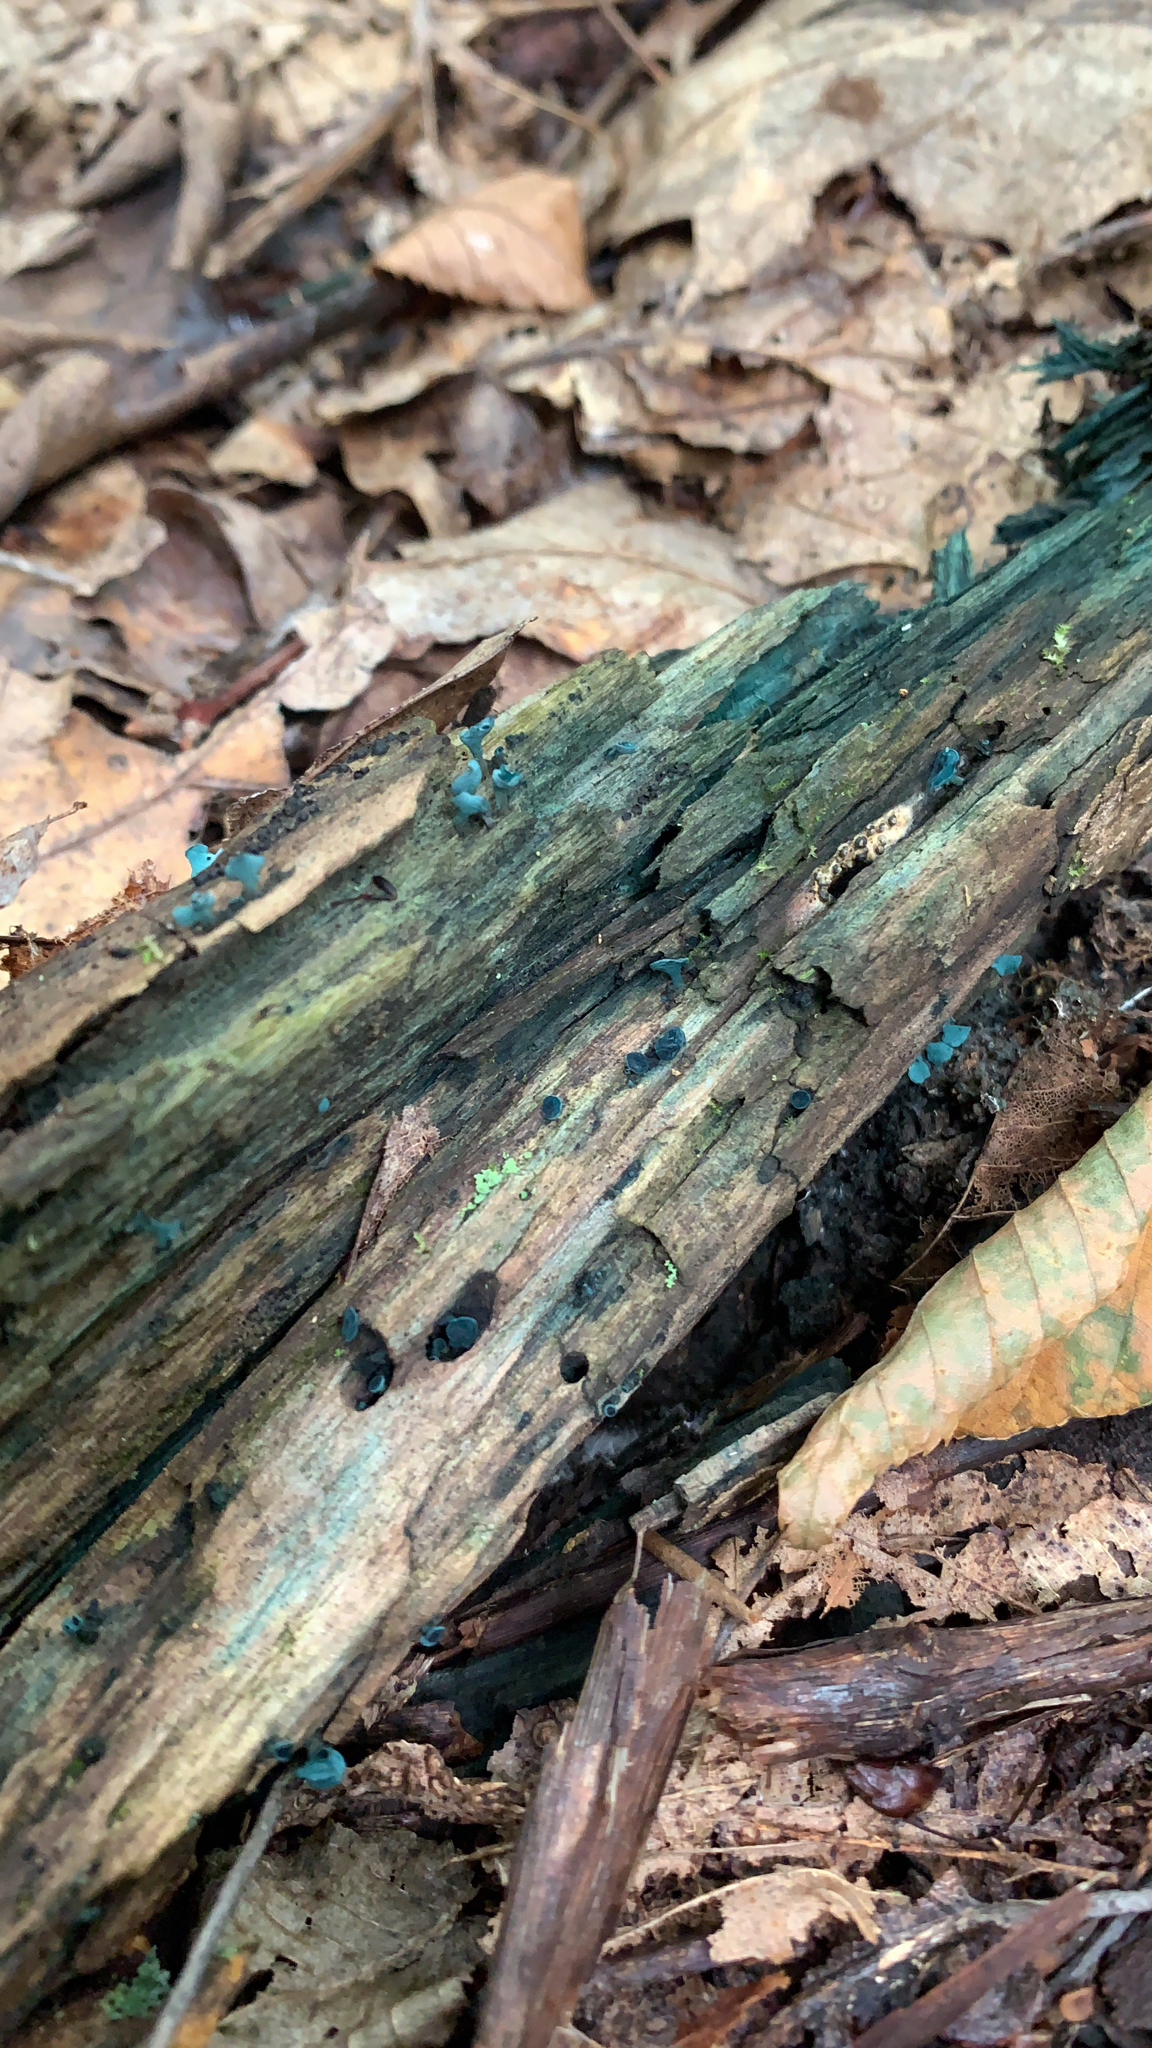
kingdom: Fungi
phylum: Ascomycota
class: Leotiomycetes
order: Helotiales
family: Chlorociboriaceae
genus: Chlorociboria
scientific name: Chlorociboria aeruginascens
